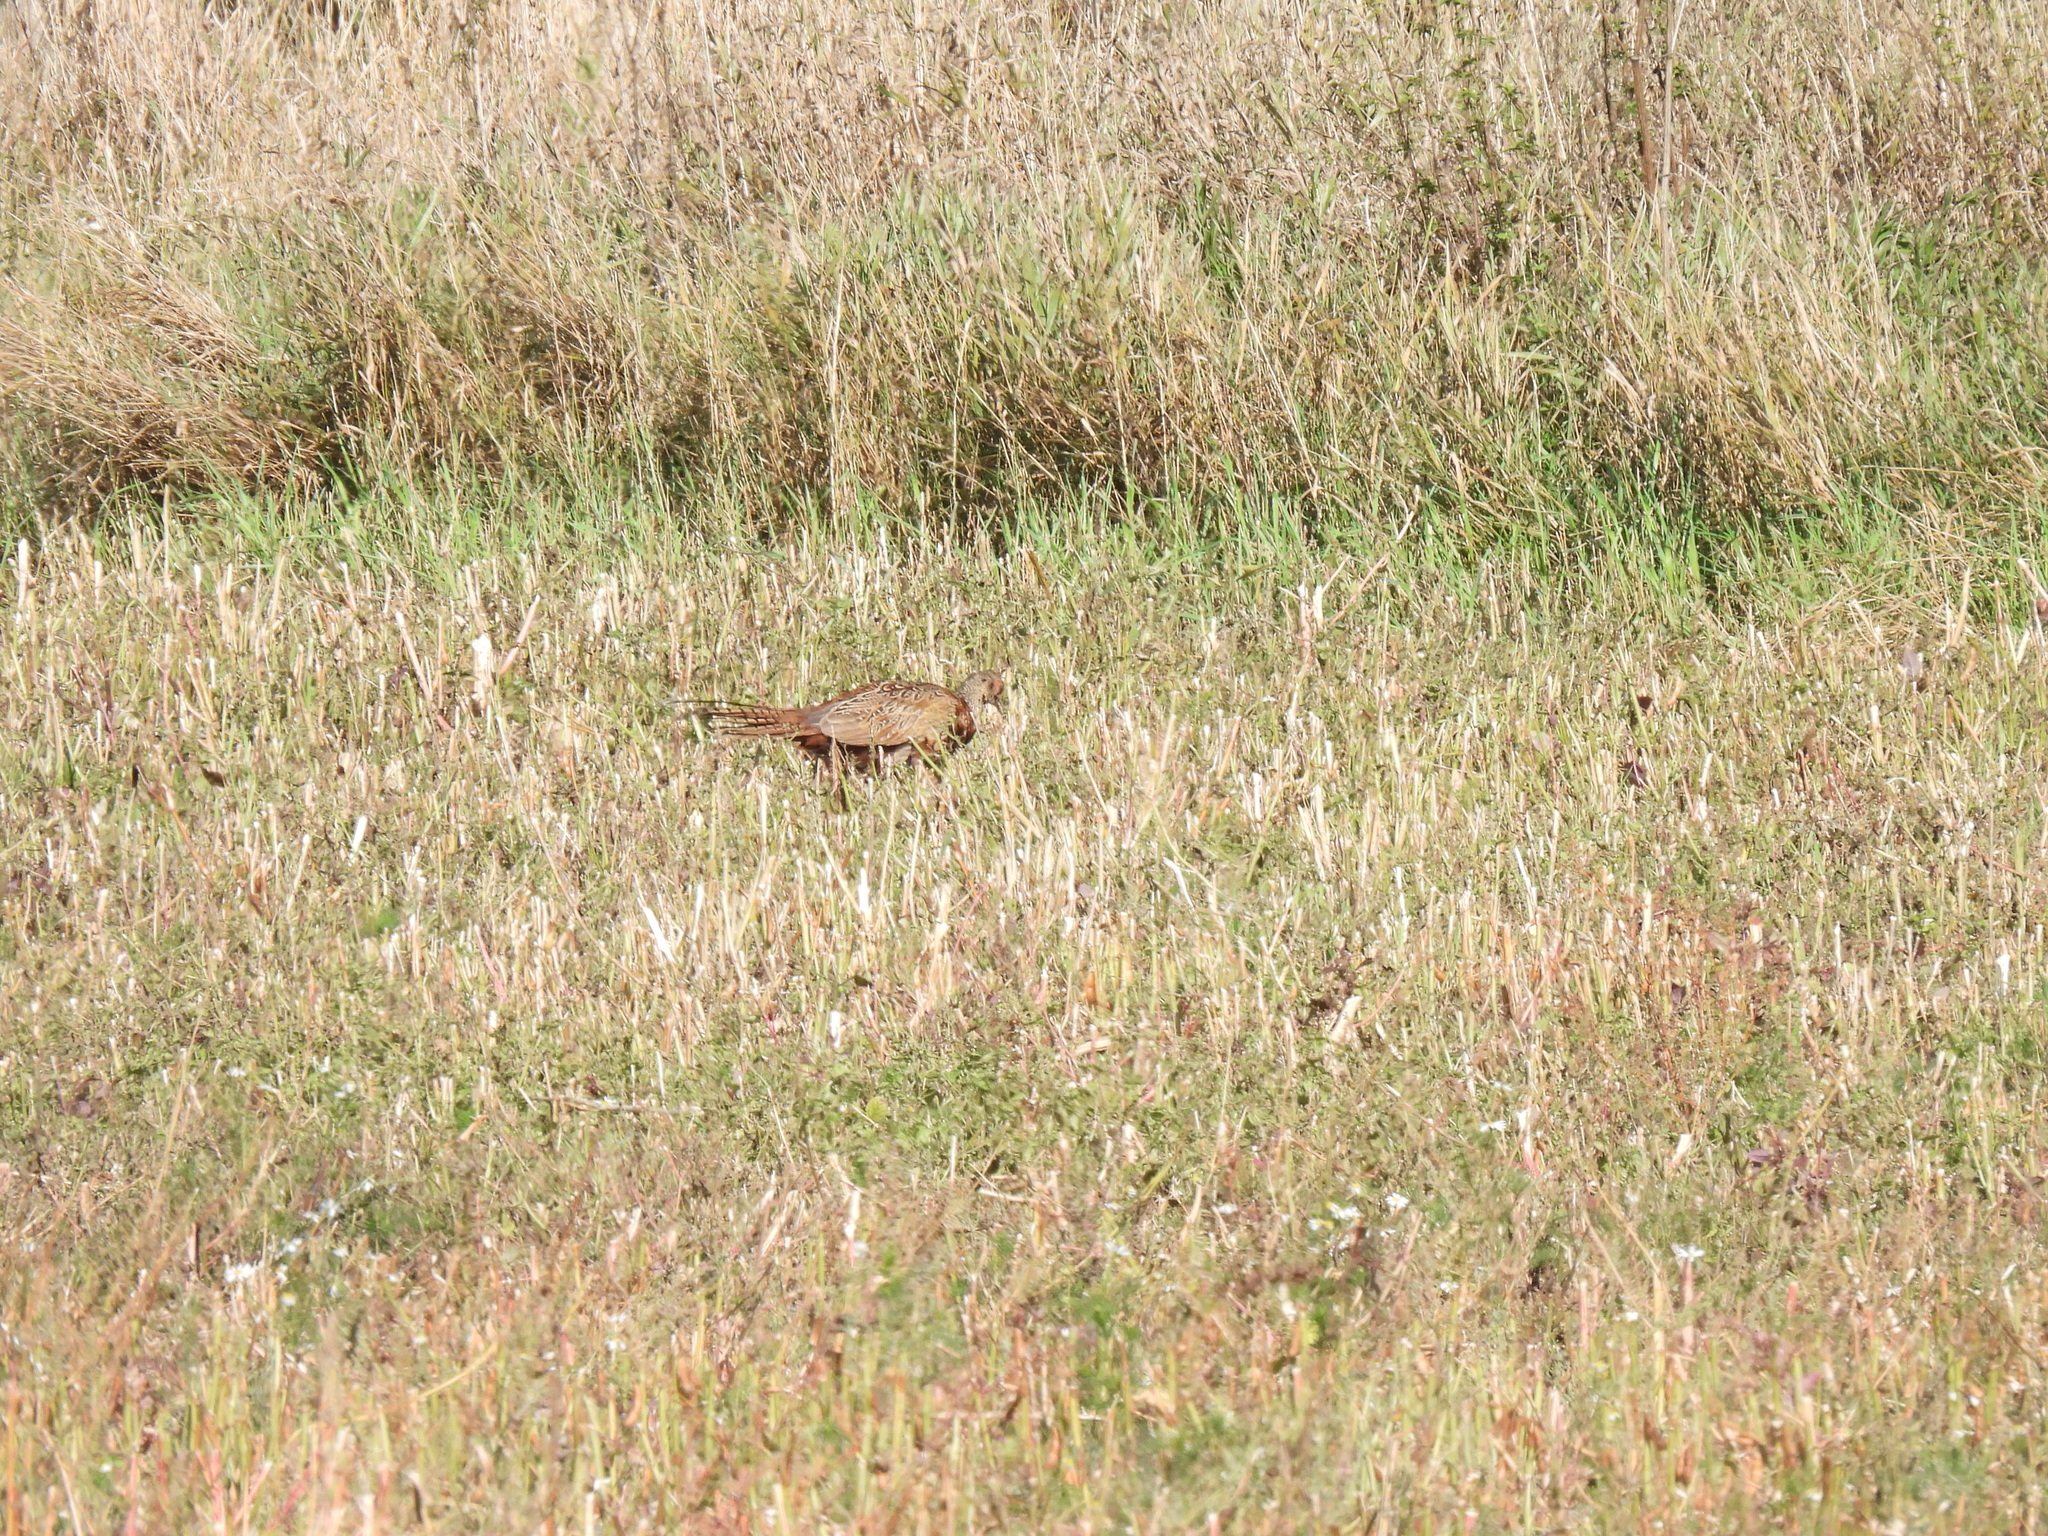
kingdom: Animalia
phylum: Chordata
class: Aves
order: Galliformes
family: Phasianidae
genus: Phasianus
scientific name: Phasianus colchicus
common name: Common pheasant
